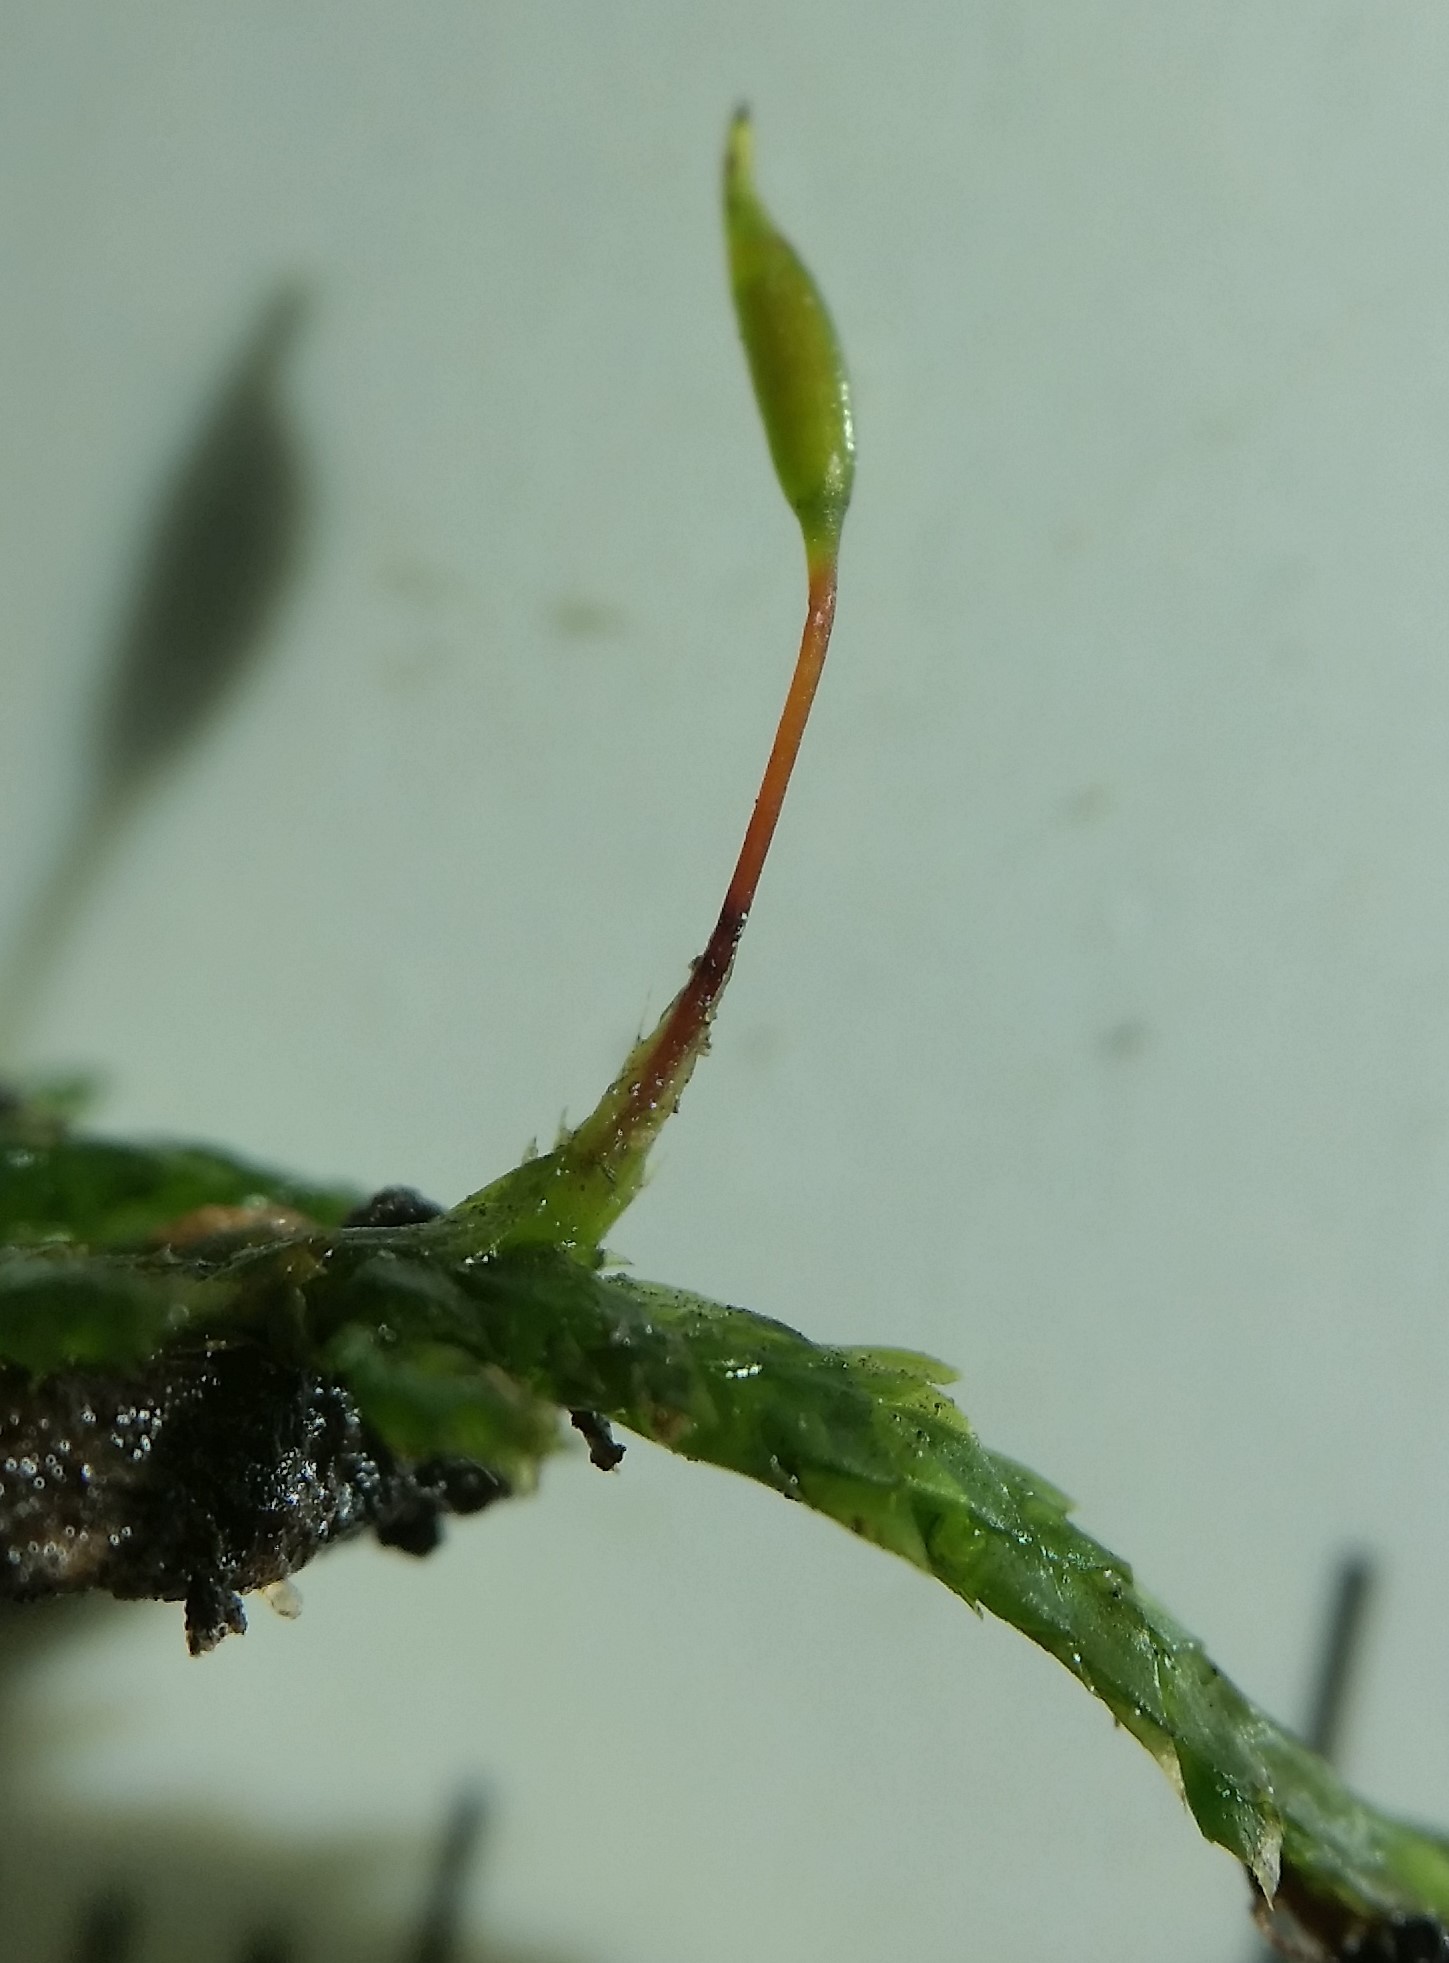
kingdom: Plantae
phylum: Bryophyta
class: Bryopsida
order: Hypnales
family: Entodontaceae
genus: Entodon
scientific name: Entodon cladorrhizans
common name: Flat-stemmed entodon moss
